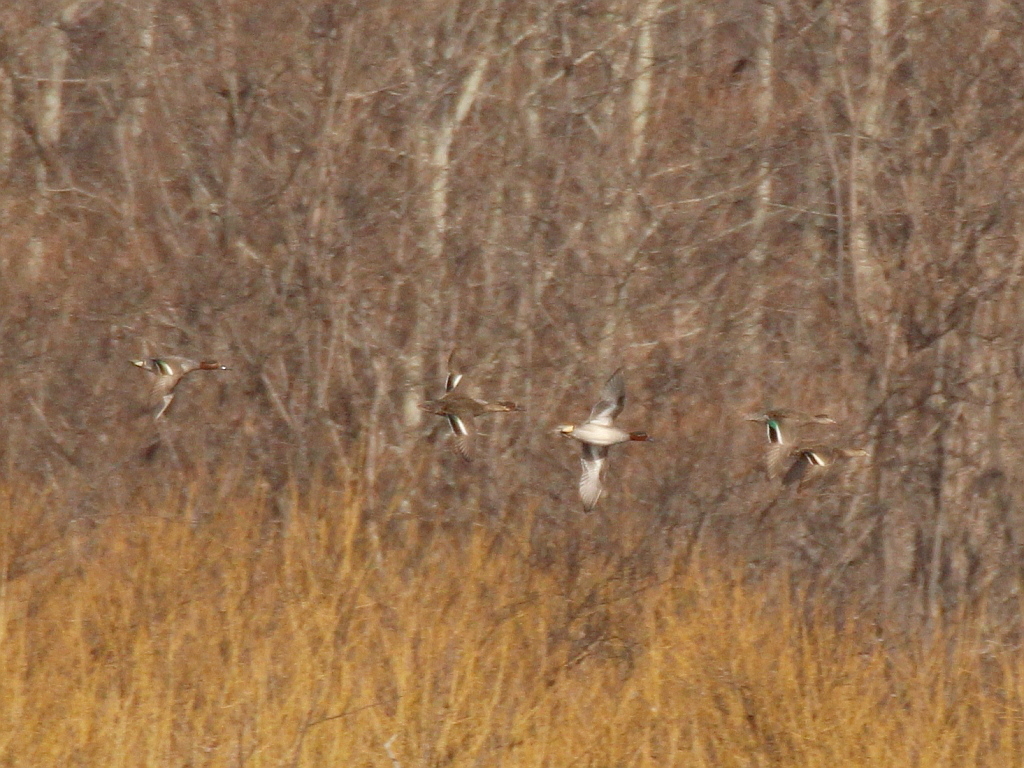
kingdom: Animalia
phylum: Chordata
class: Aves
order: Anseriformes
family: Anatidae
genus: Anas
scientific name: Anas crecca
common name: Eurasian teal
